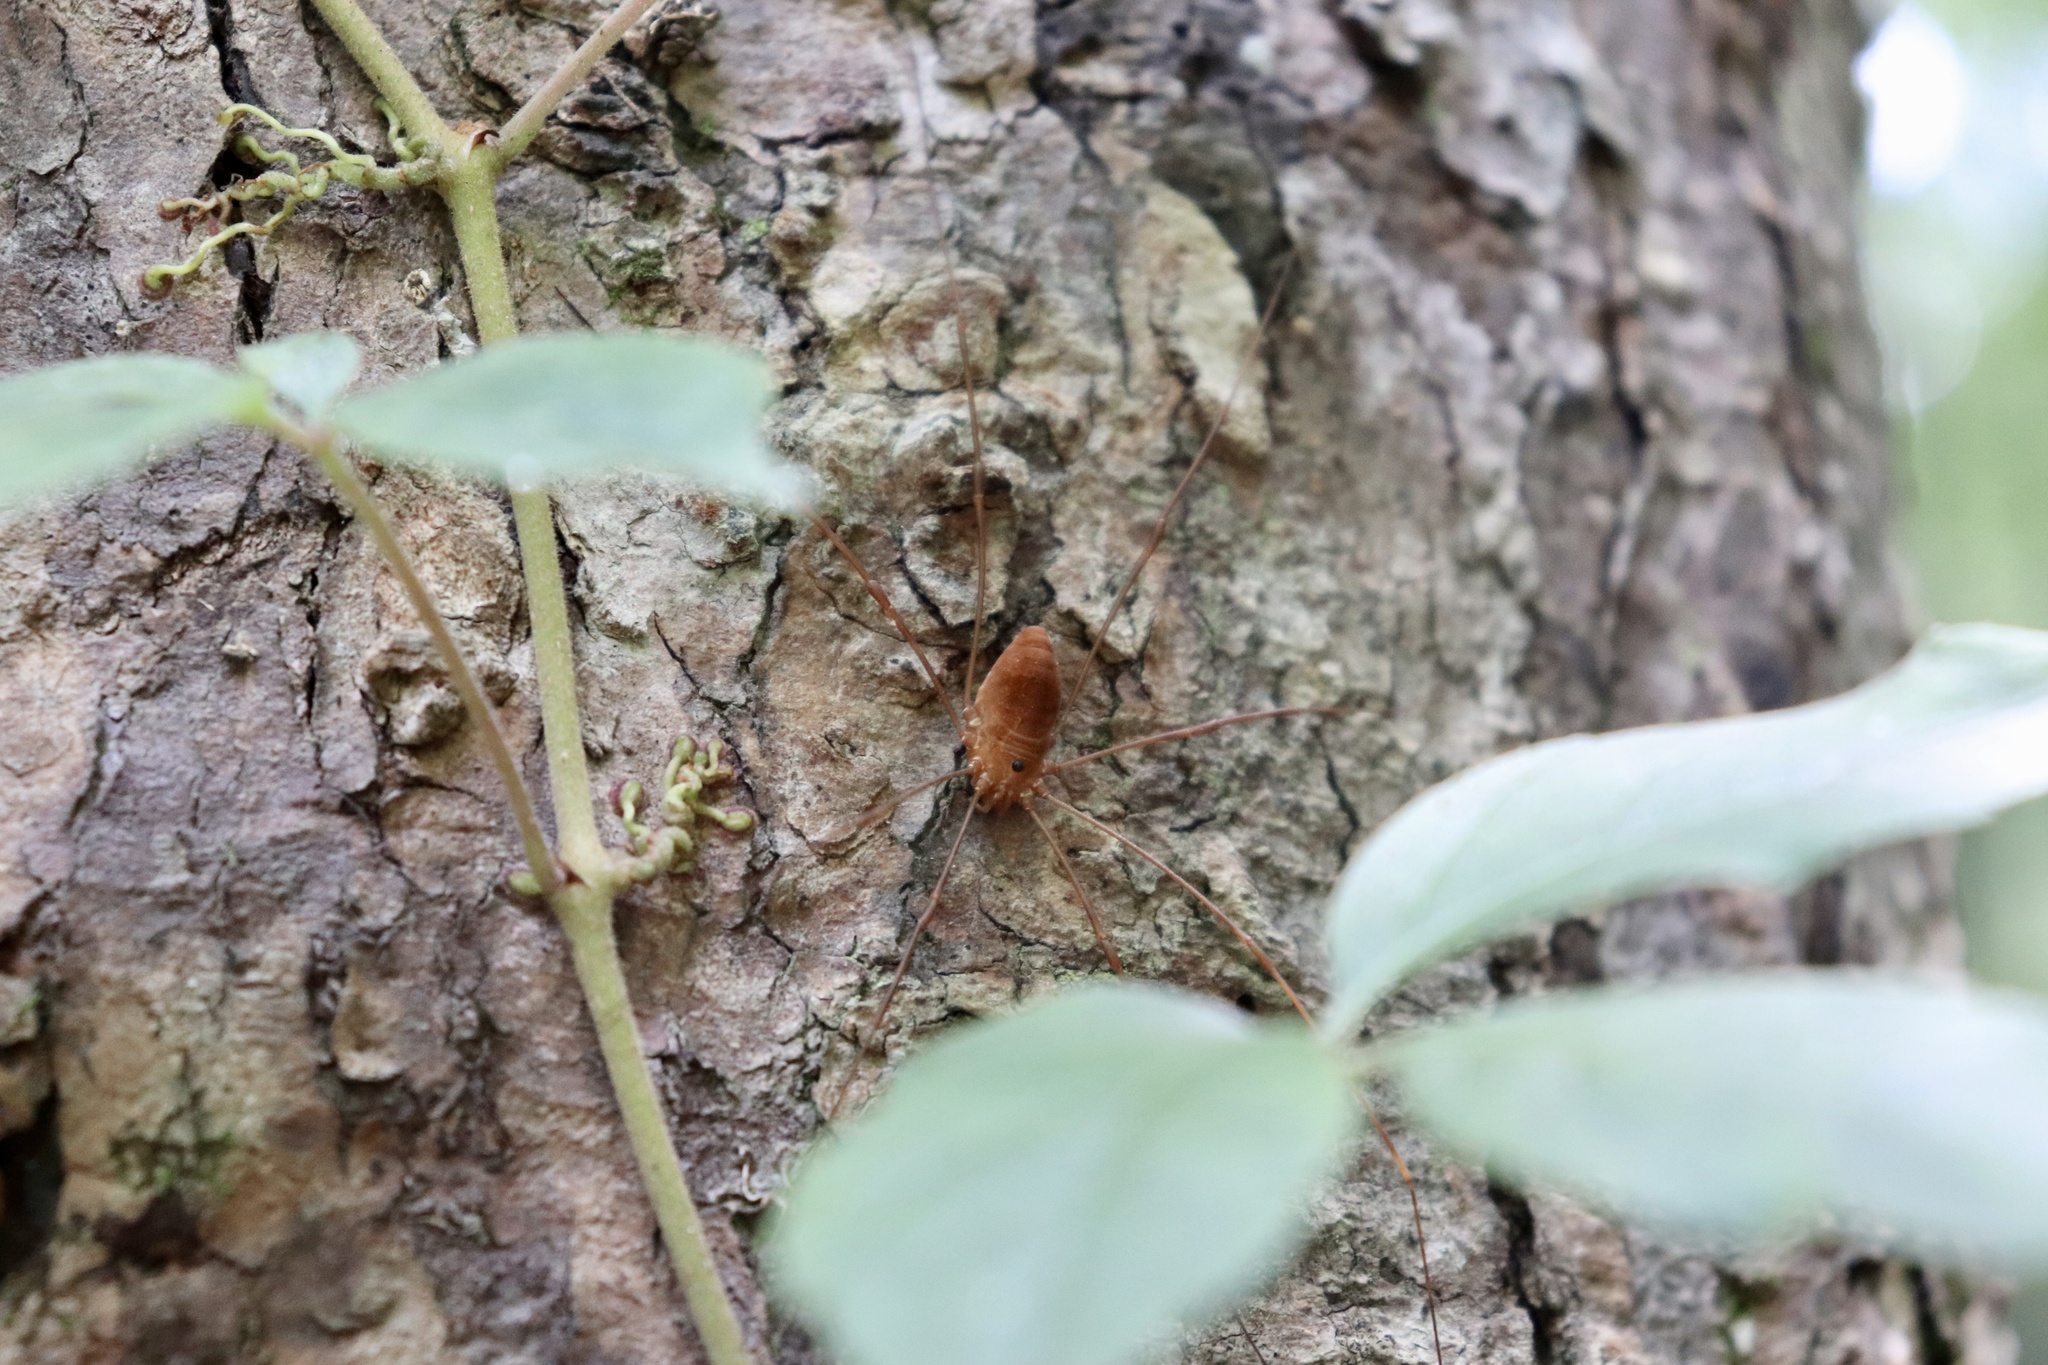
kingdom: Animalia
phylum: Arthropoda
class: Arachnida
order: Opiliones
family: Sclerosomatidae
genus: Leiobunum
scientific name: Leiobunum ventricosum
